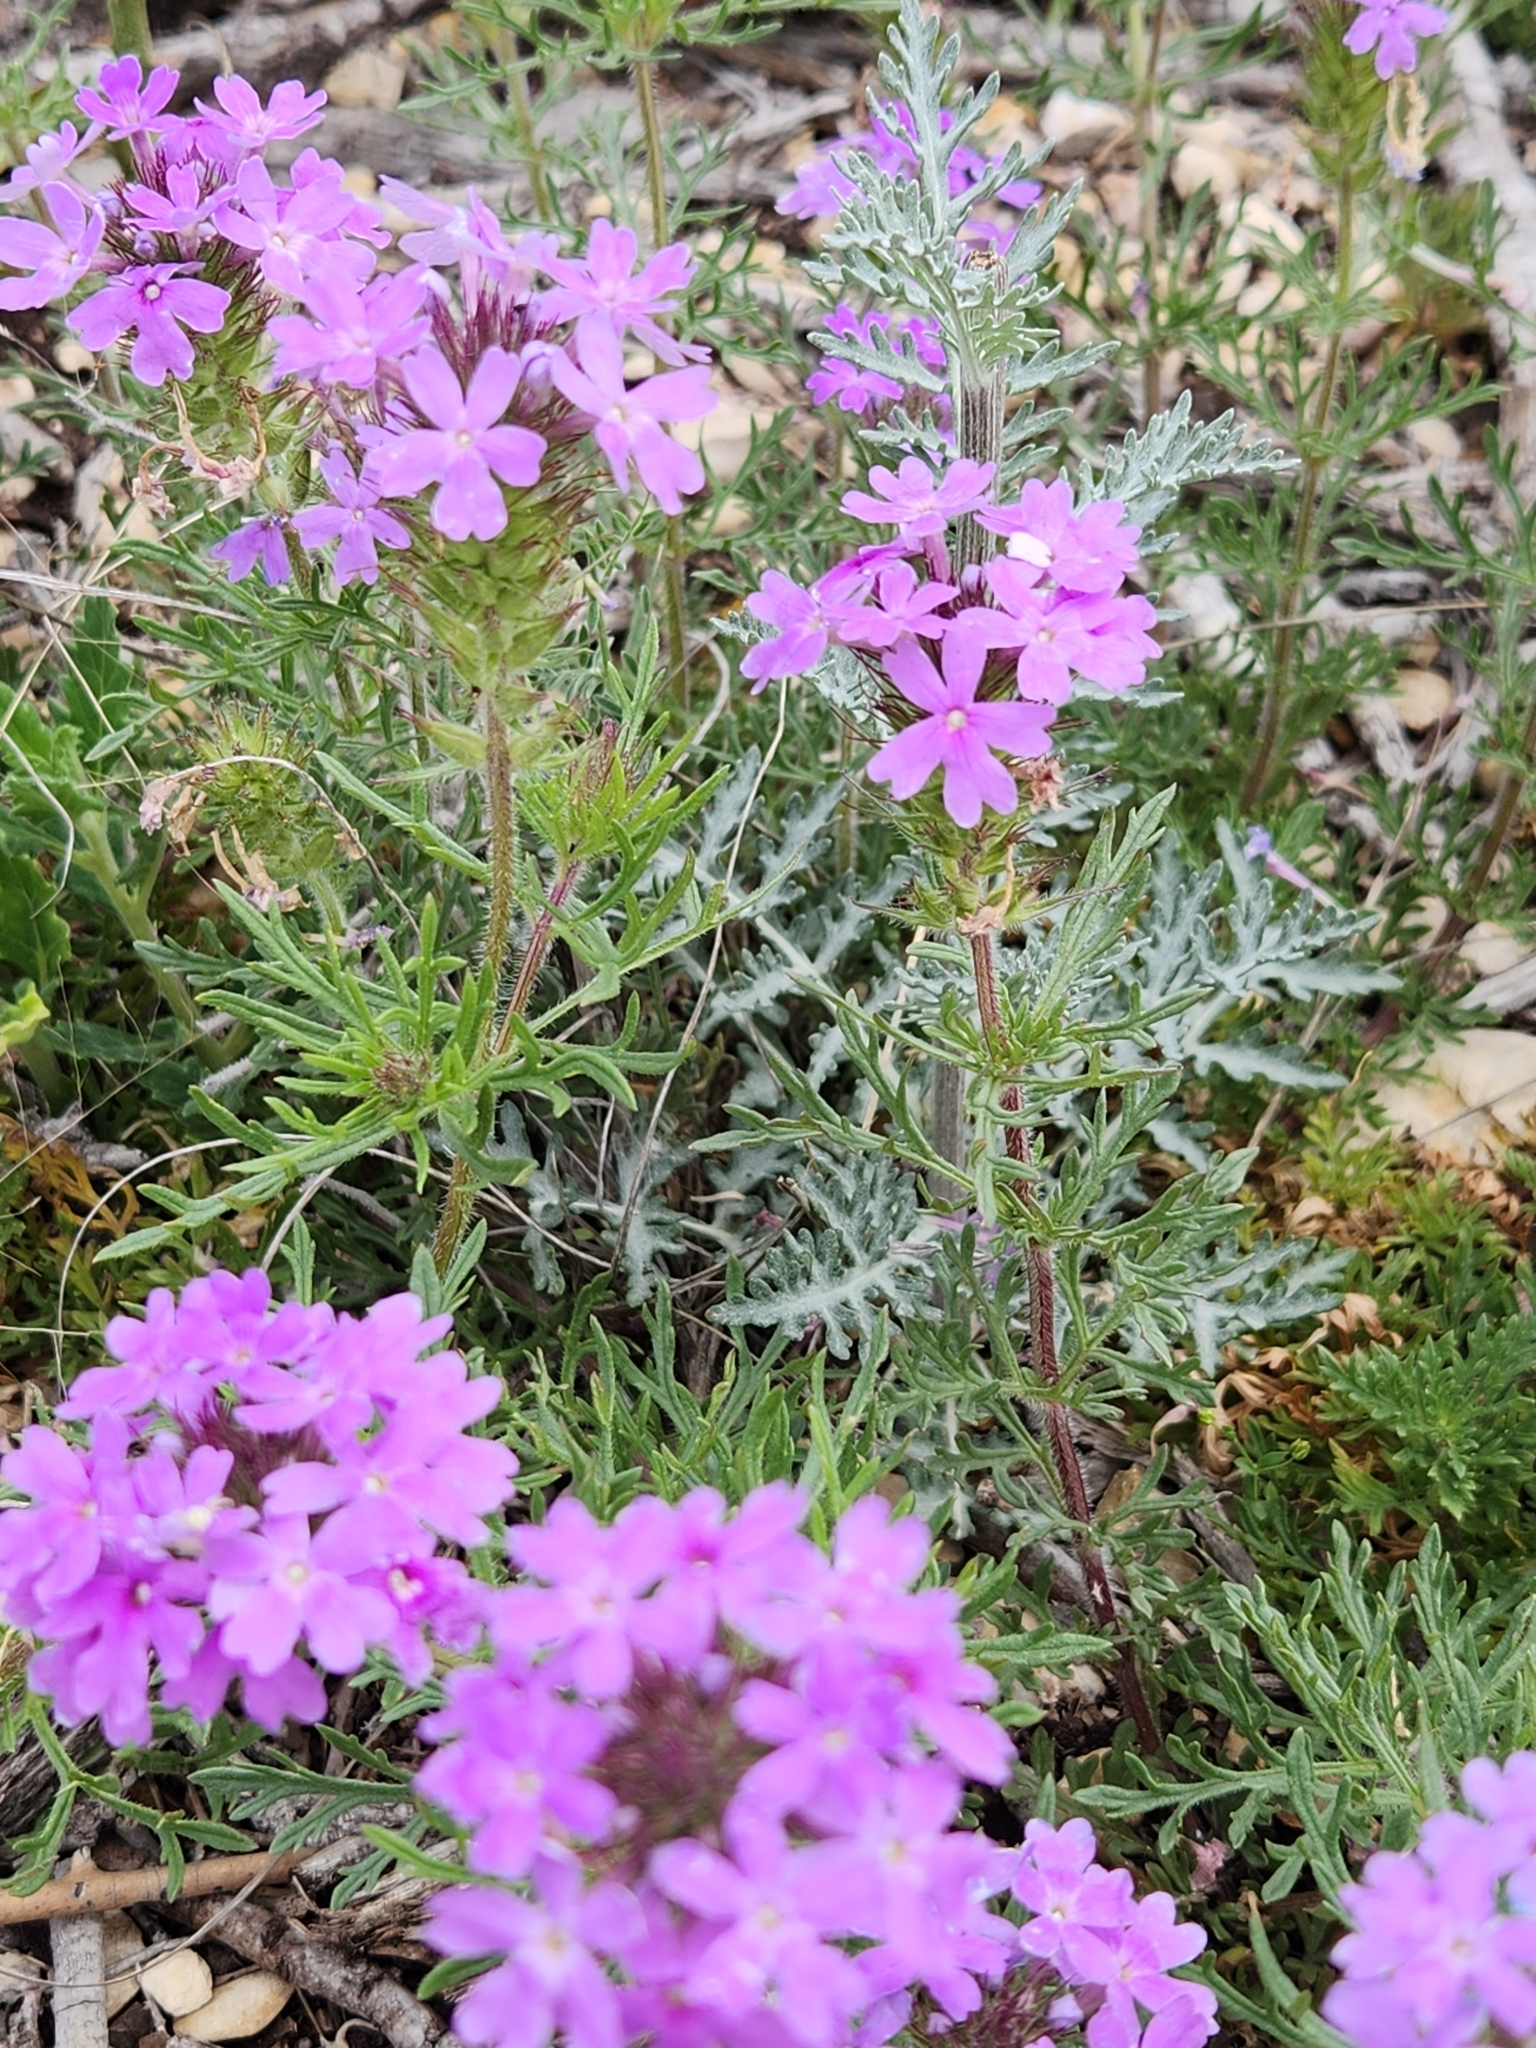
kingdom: Plantae
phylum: Tracheophyta
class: Magnoliopsida
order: Lamiales
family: Verbenaceae
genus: Verbena
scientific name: Verbena bipinnatifida
